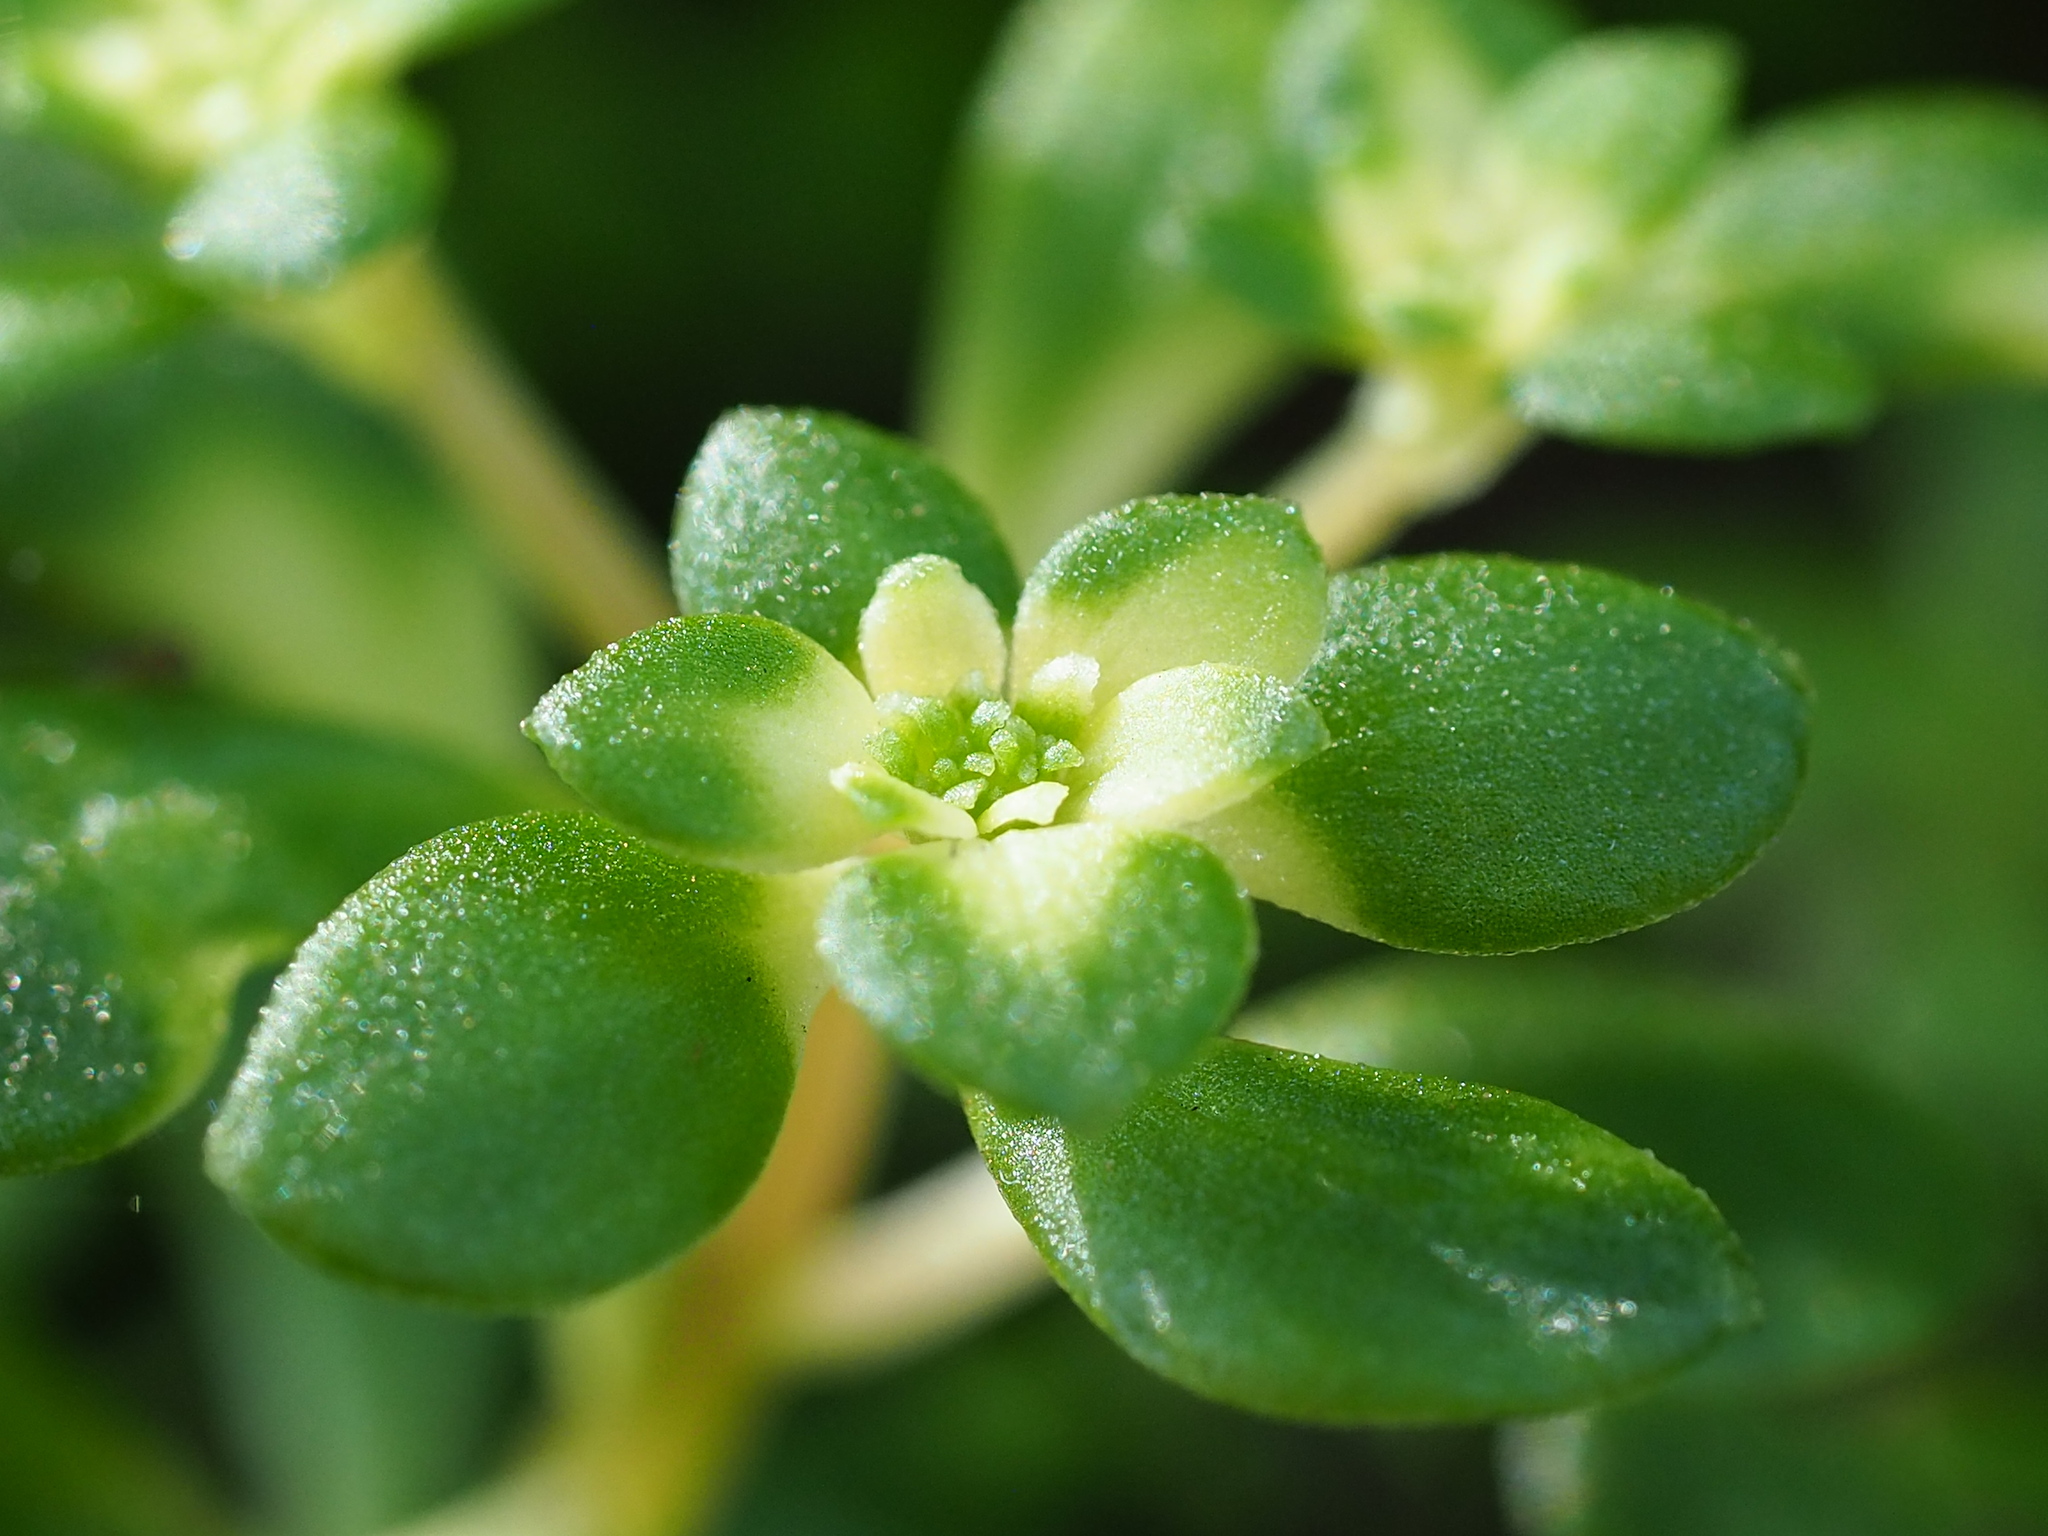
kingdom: Plantae
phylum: Tracheophyta
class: Magnoliopsida
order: Saxifragales
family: Crassulaceae
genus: Sedum
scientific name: Sedum actinocarpum
